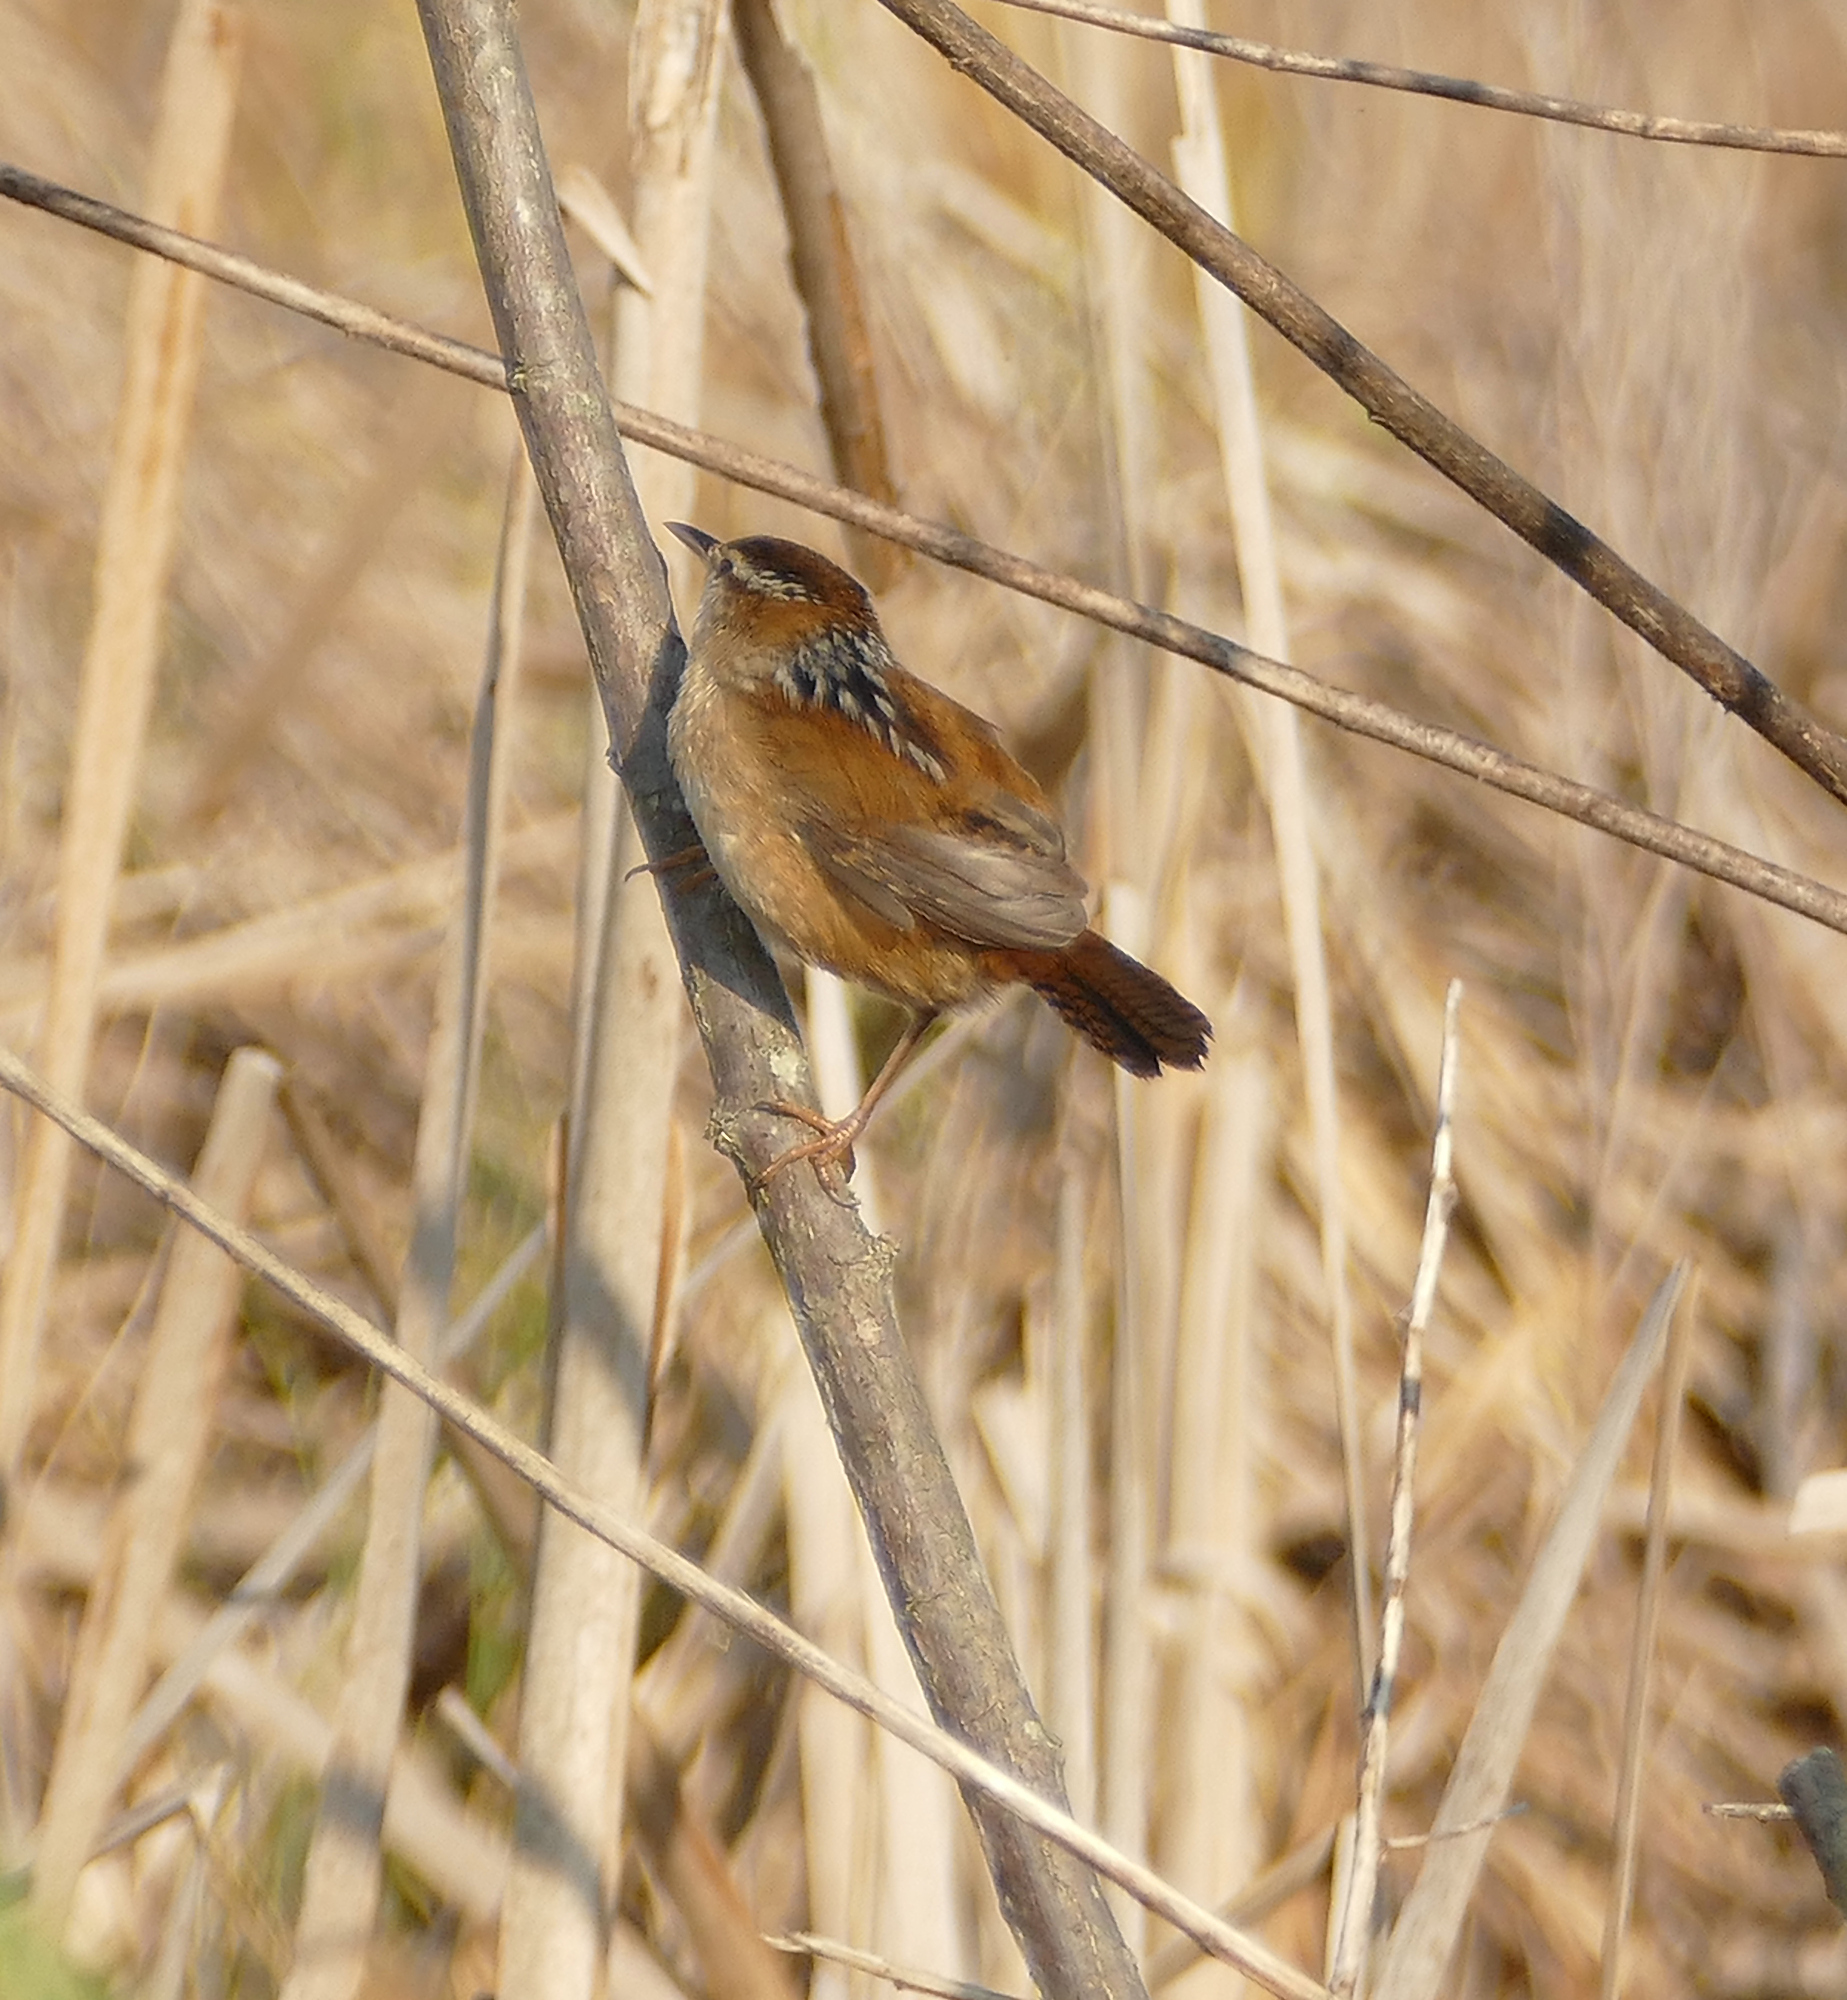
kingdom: Animalia
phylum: Chordata
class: Aves
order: Passeriformes
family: Troglodytidae
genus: Cistothorus
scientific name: Cistothorus palustris
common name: Marsh wren
